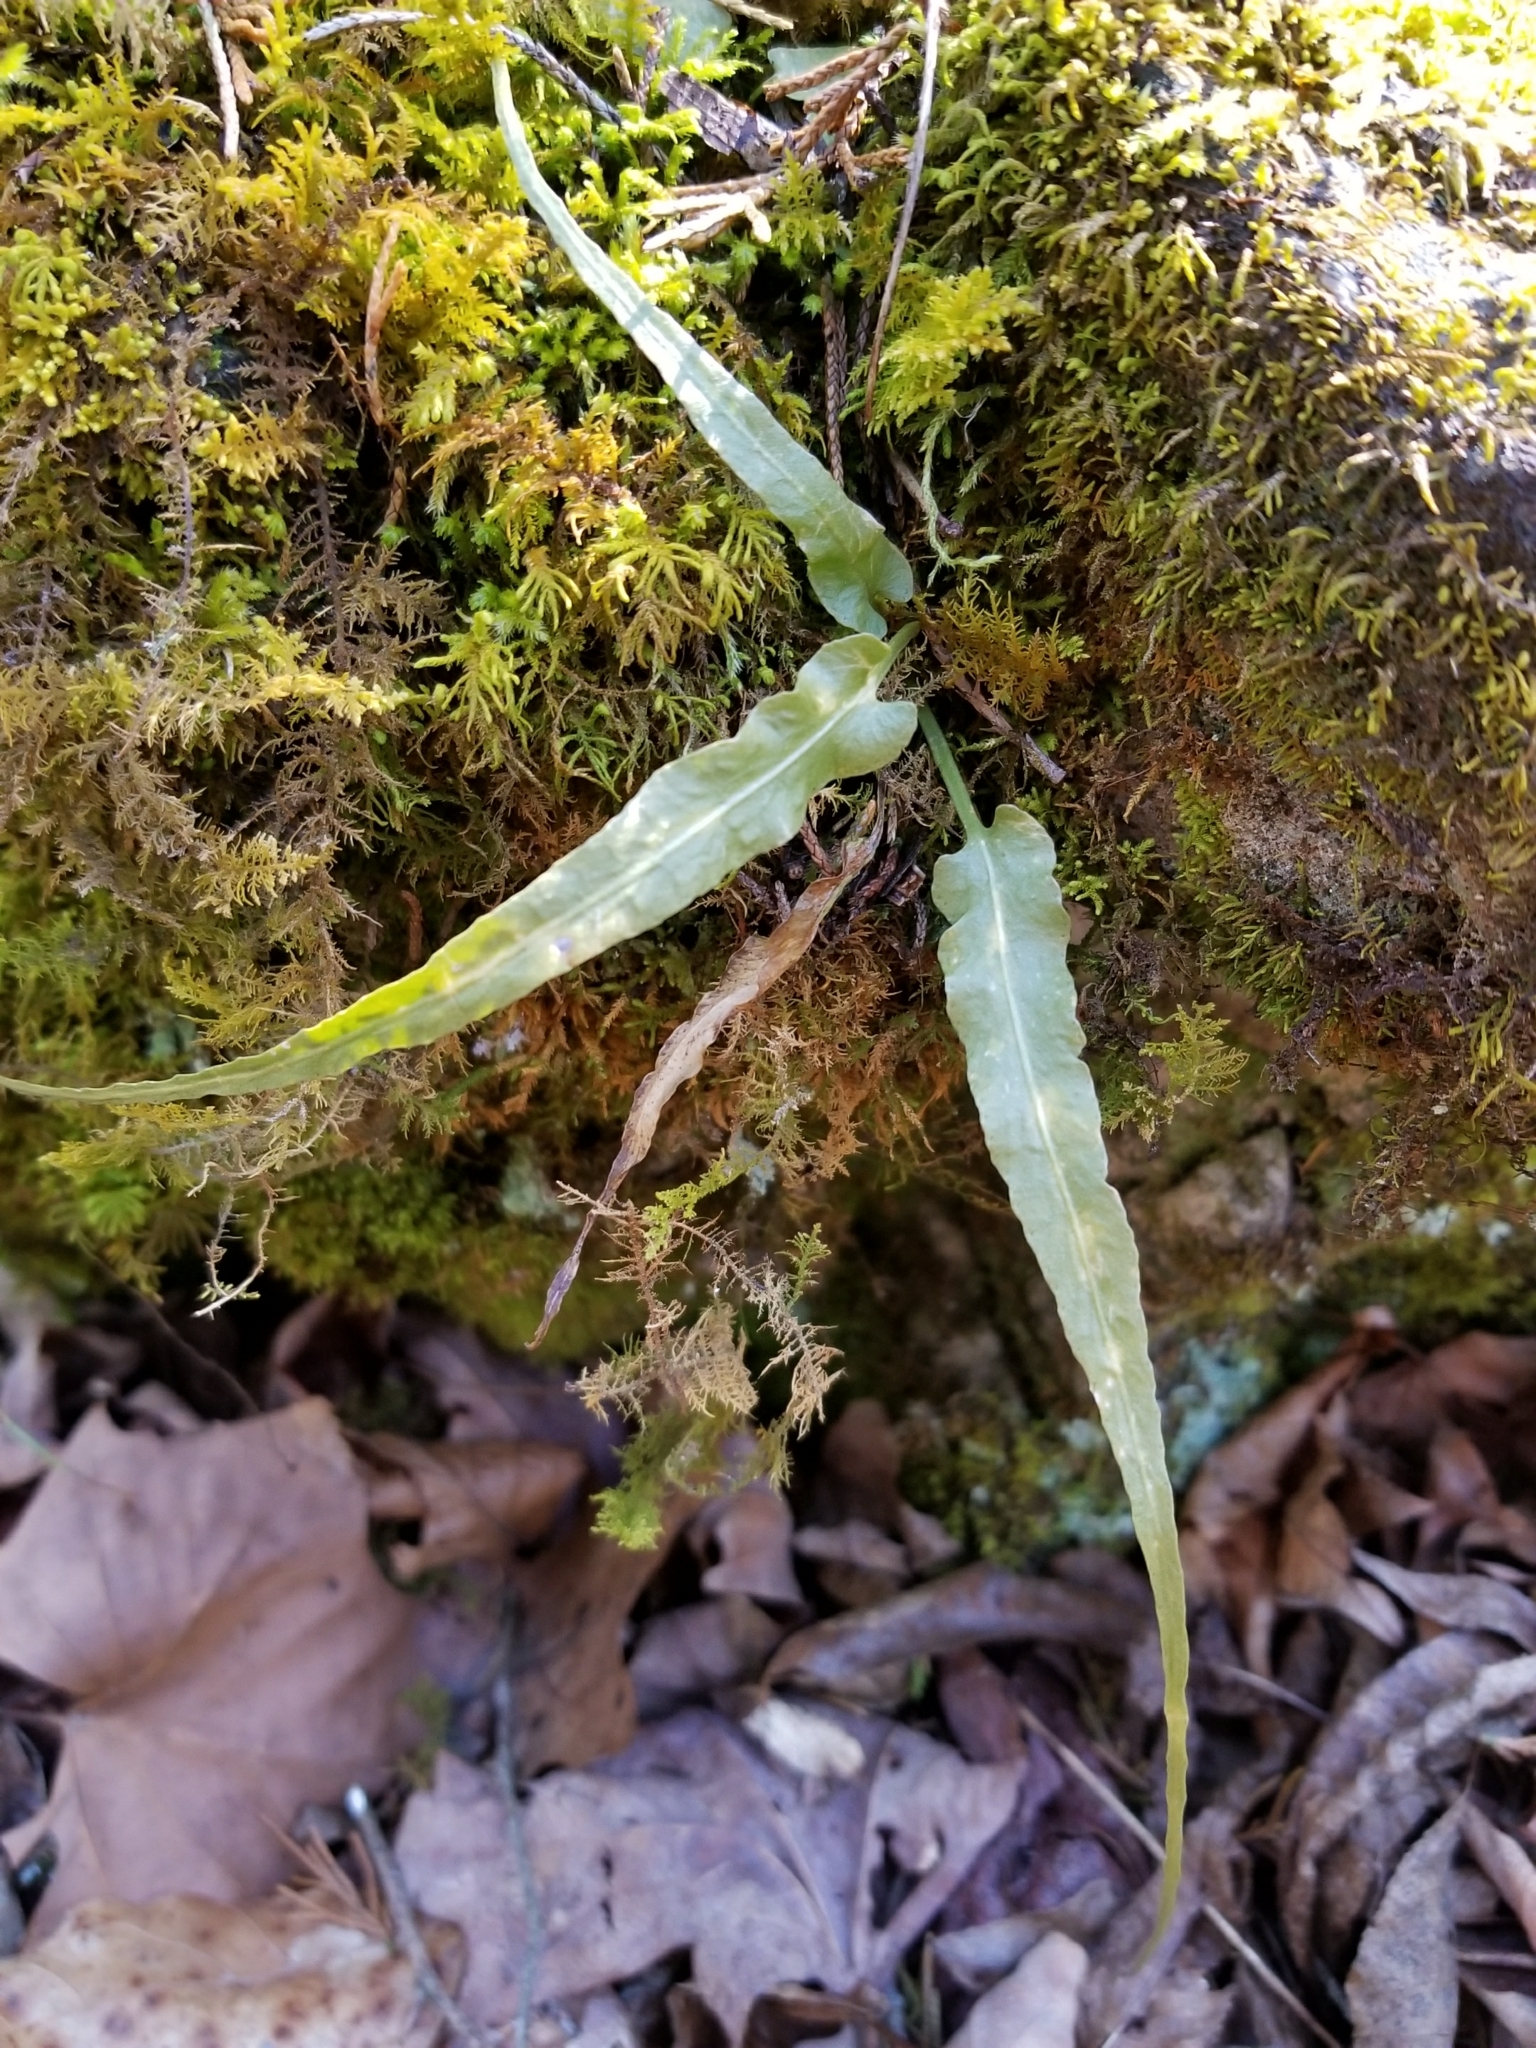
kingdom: Plantae
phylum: Tracheophyta
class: Polypodiopsida
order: Polypodiales
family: Aspleniaceae
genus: Asplenium
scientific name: Asplenium rhizophyllum
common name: Walking fern
